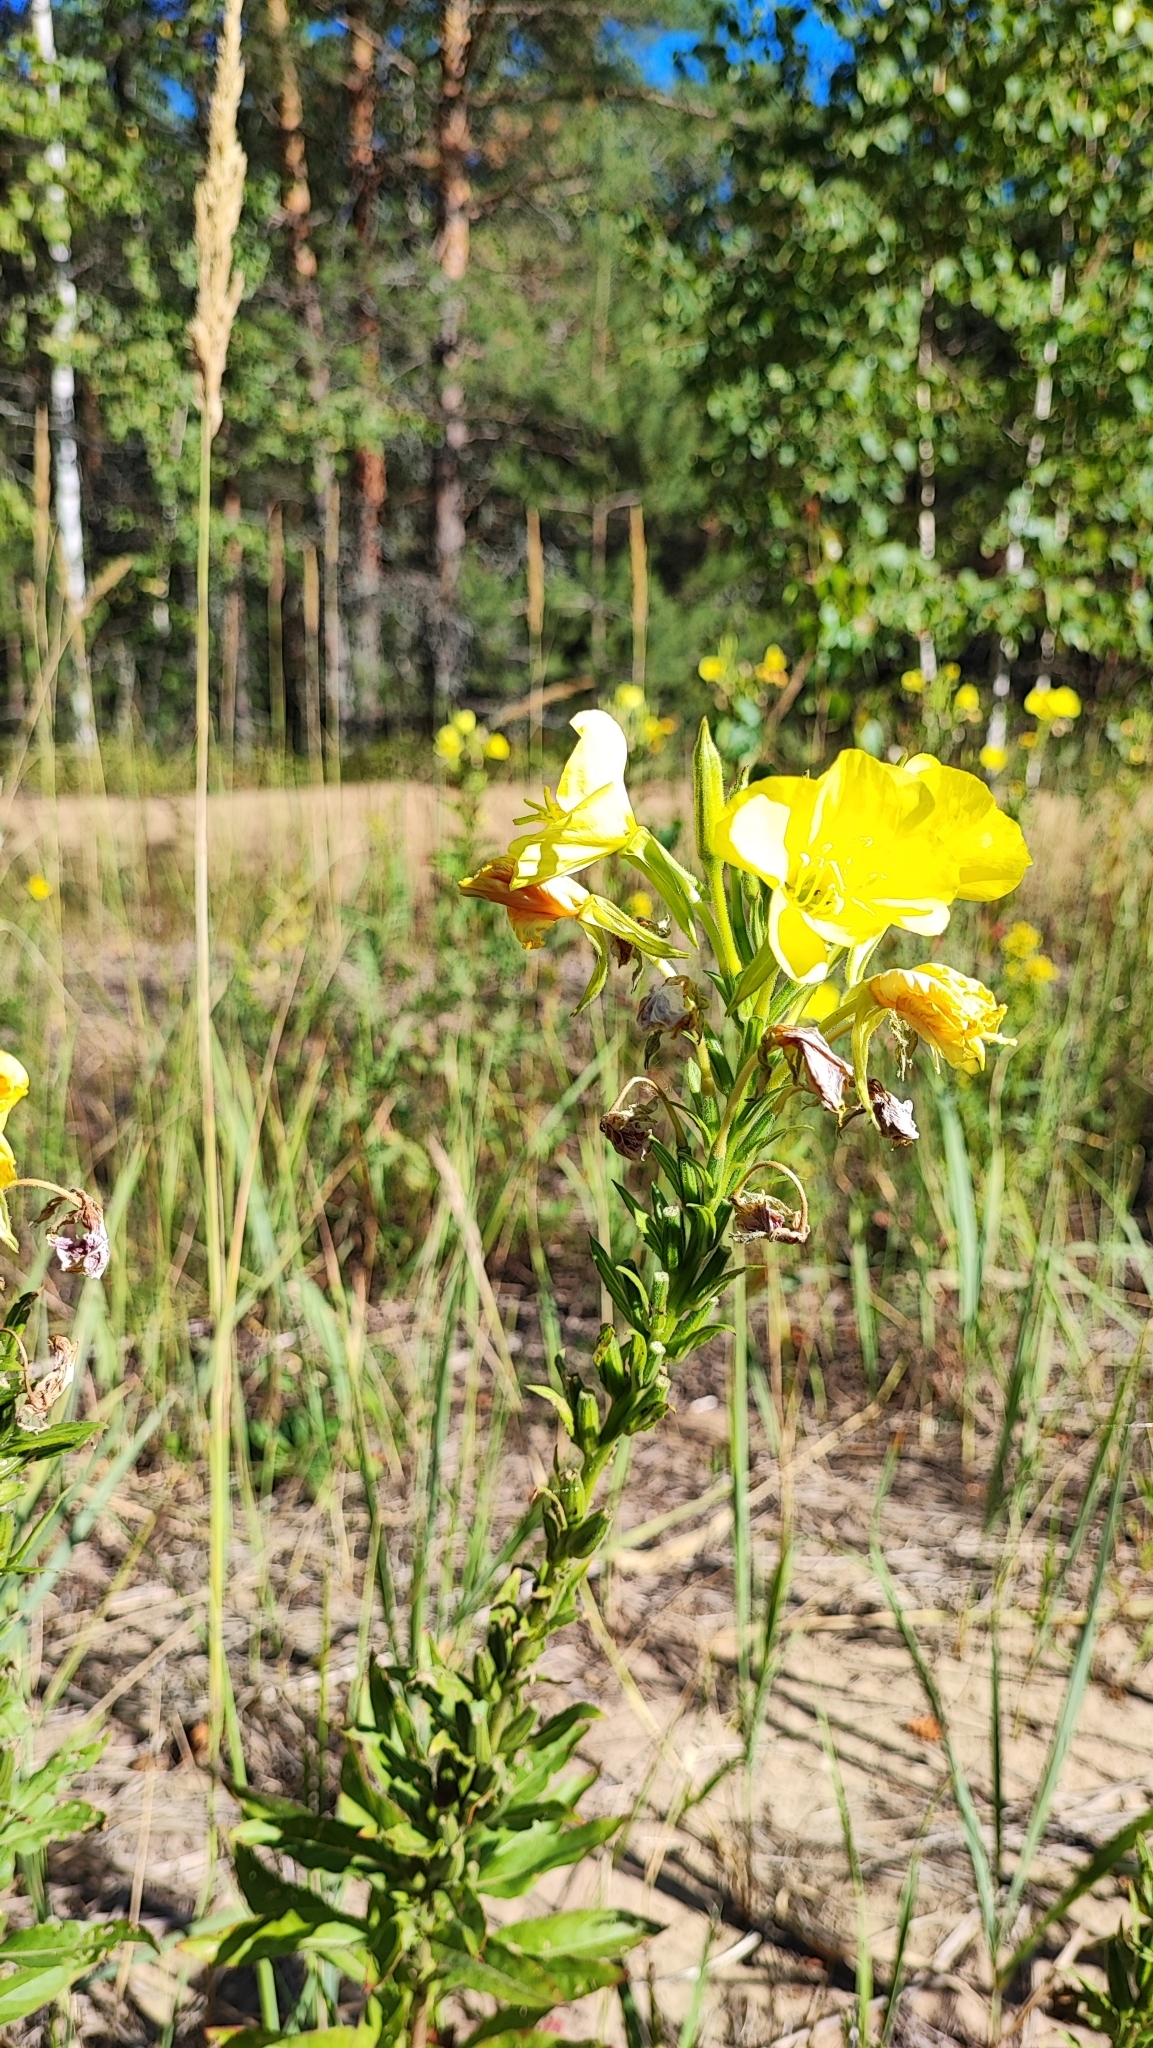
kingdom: Plantae
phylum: Tracheophyta
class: Magnoliopsida
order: Myrtales
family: Onagraceae
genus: Oenothera
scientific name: Oenothera biennis
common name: Common evening-primrose
